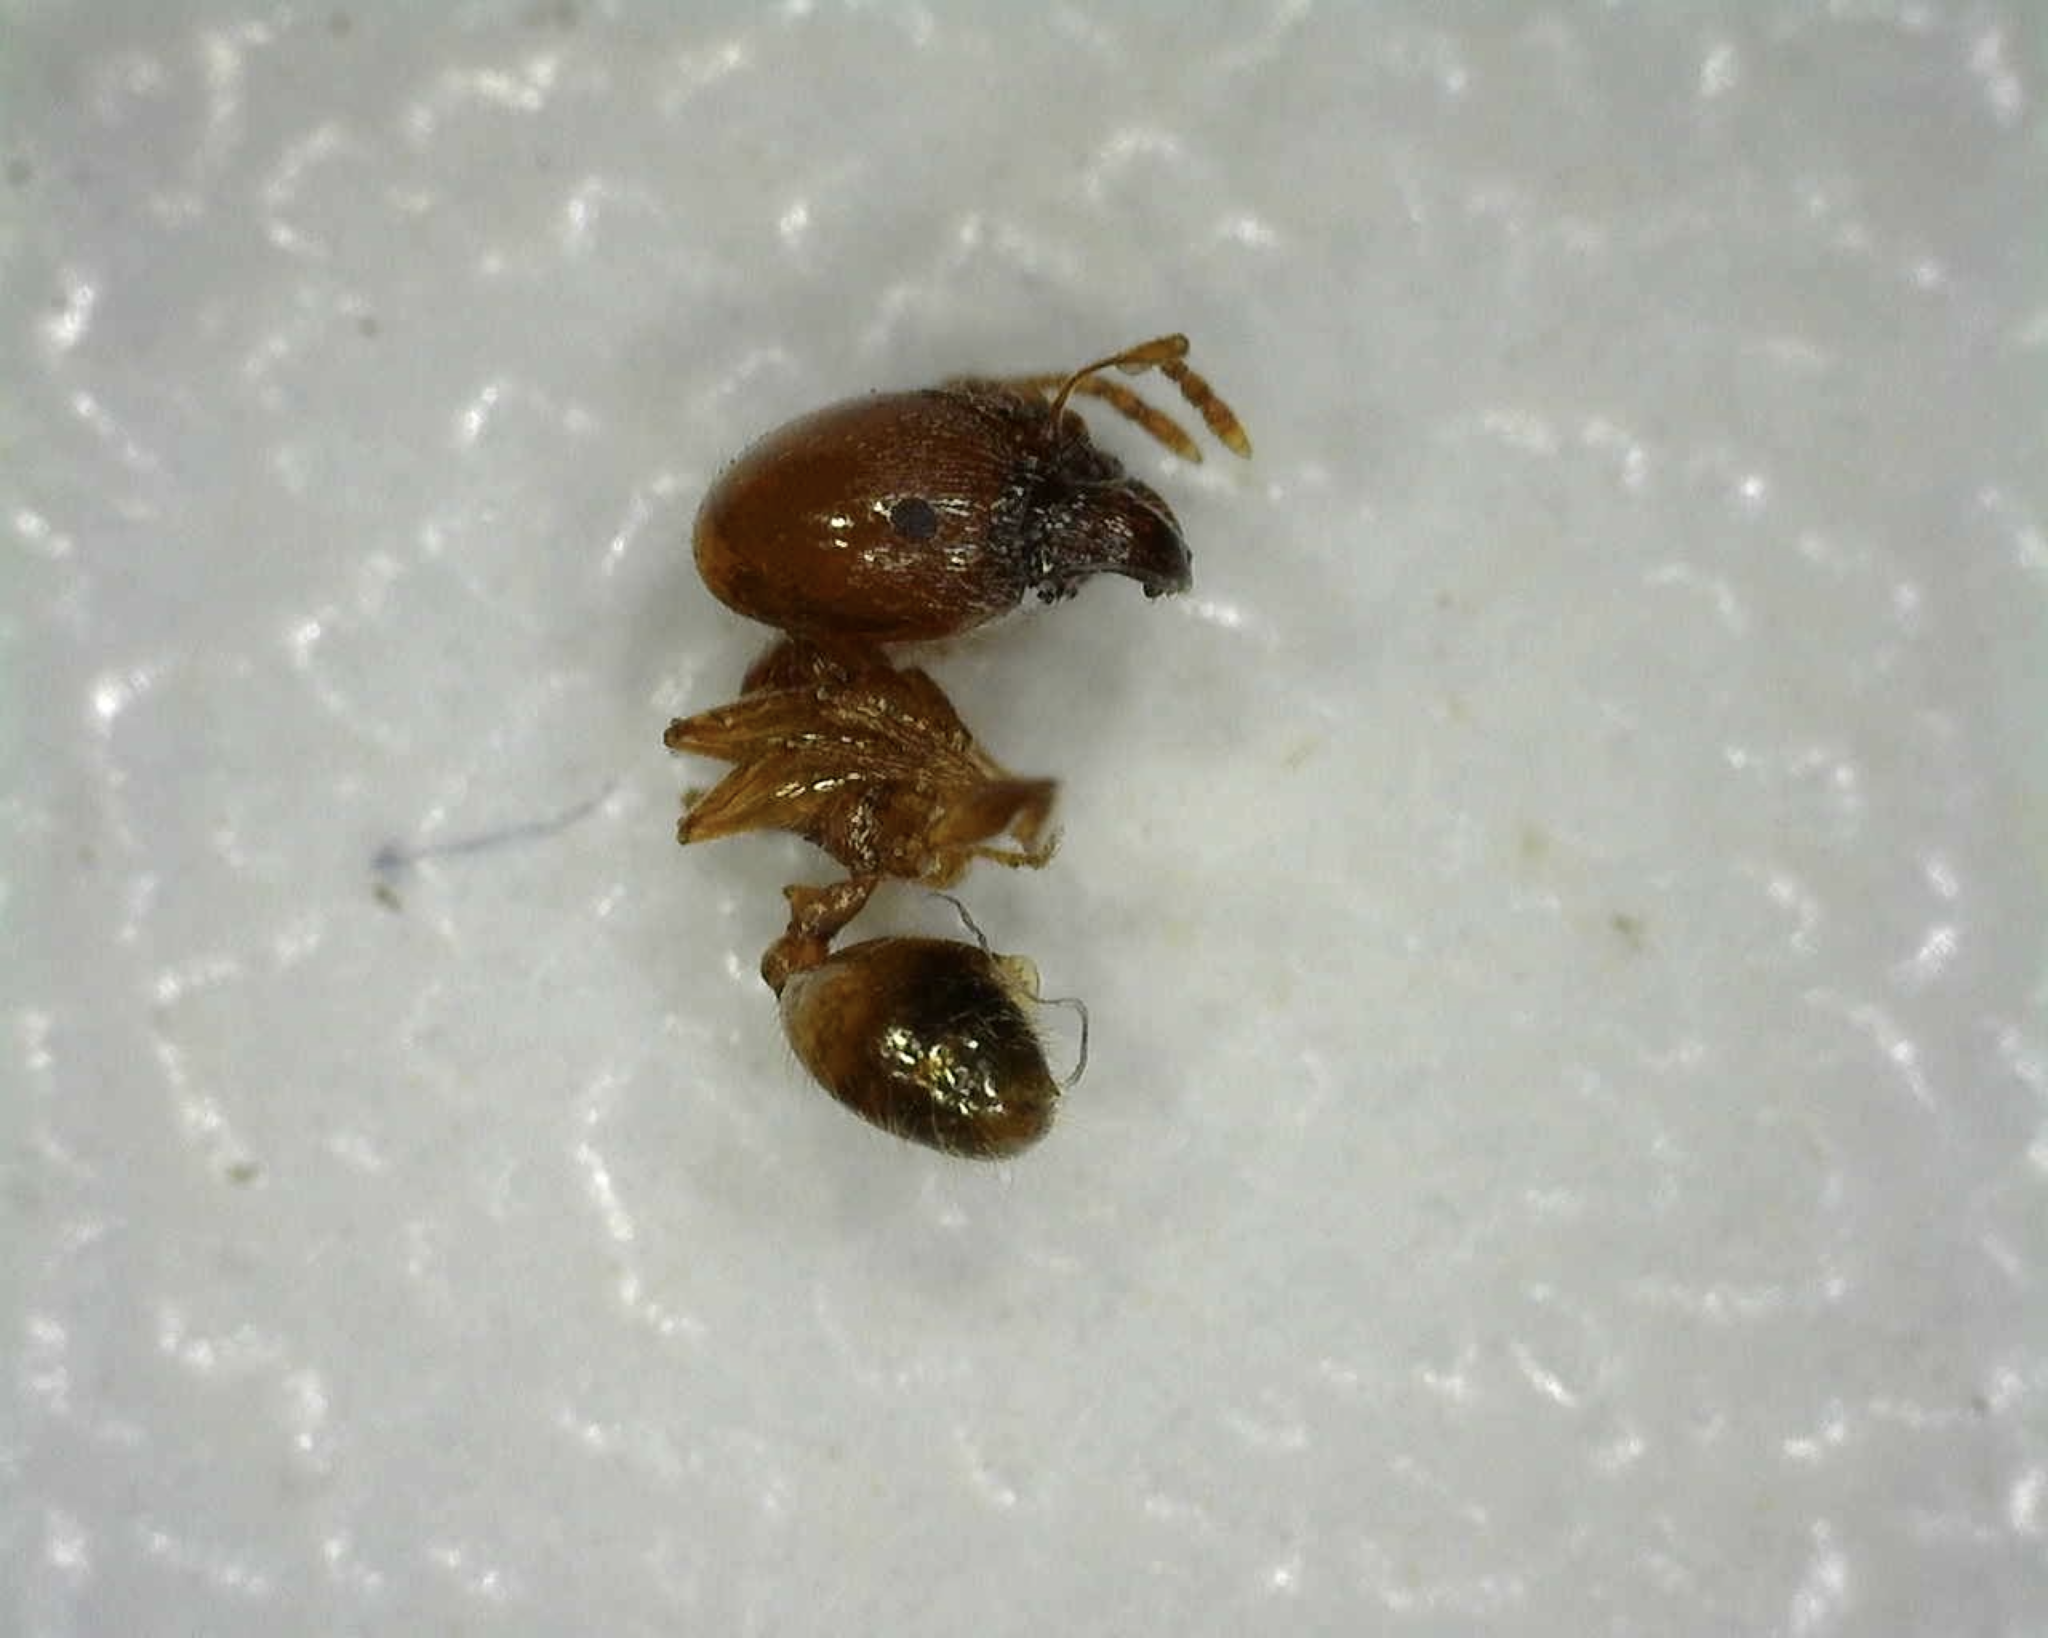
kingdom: Animalia
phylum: Arthropoda
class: Insecta
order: Hymenoptera
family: Formicidae
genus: Pheidole
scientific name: Pheidole pallidula
